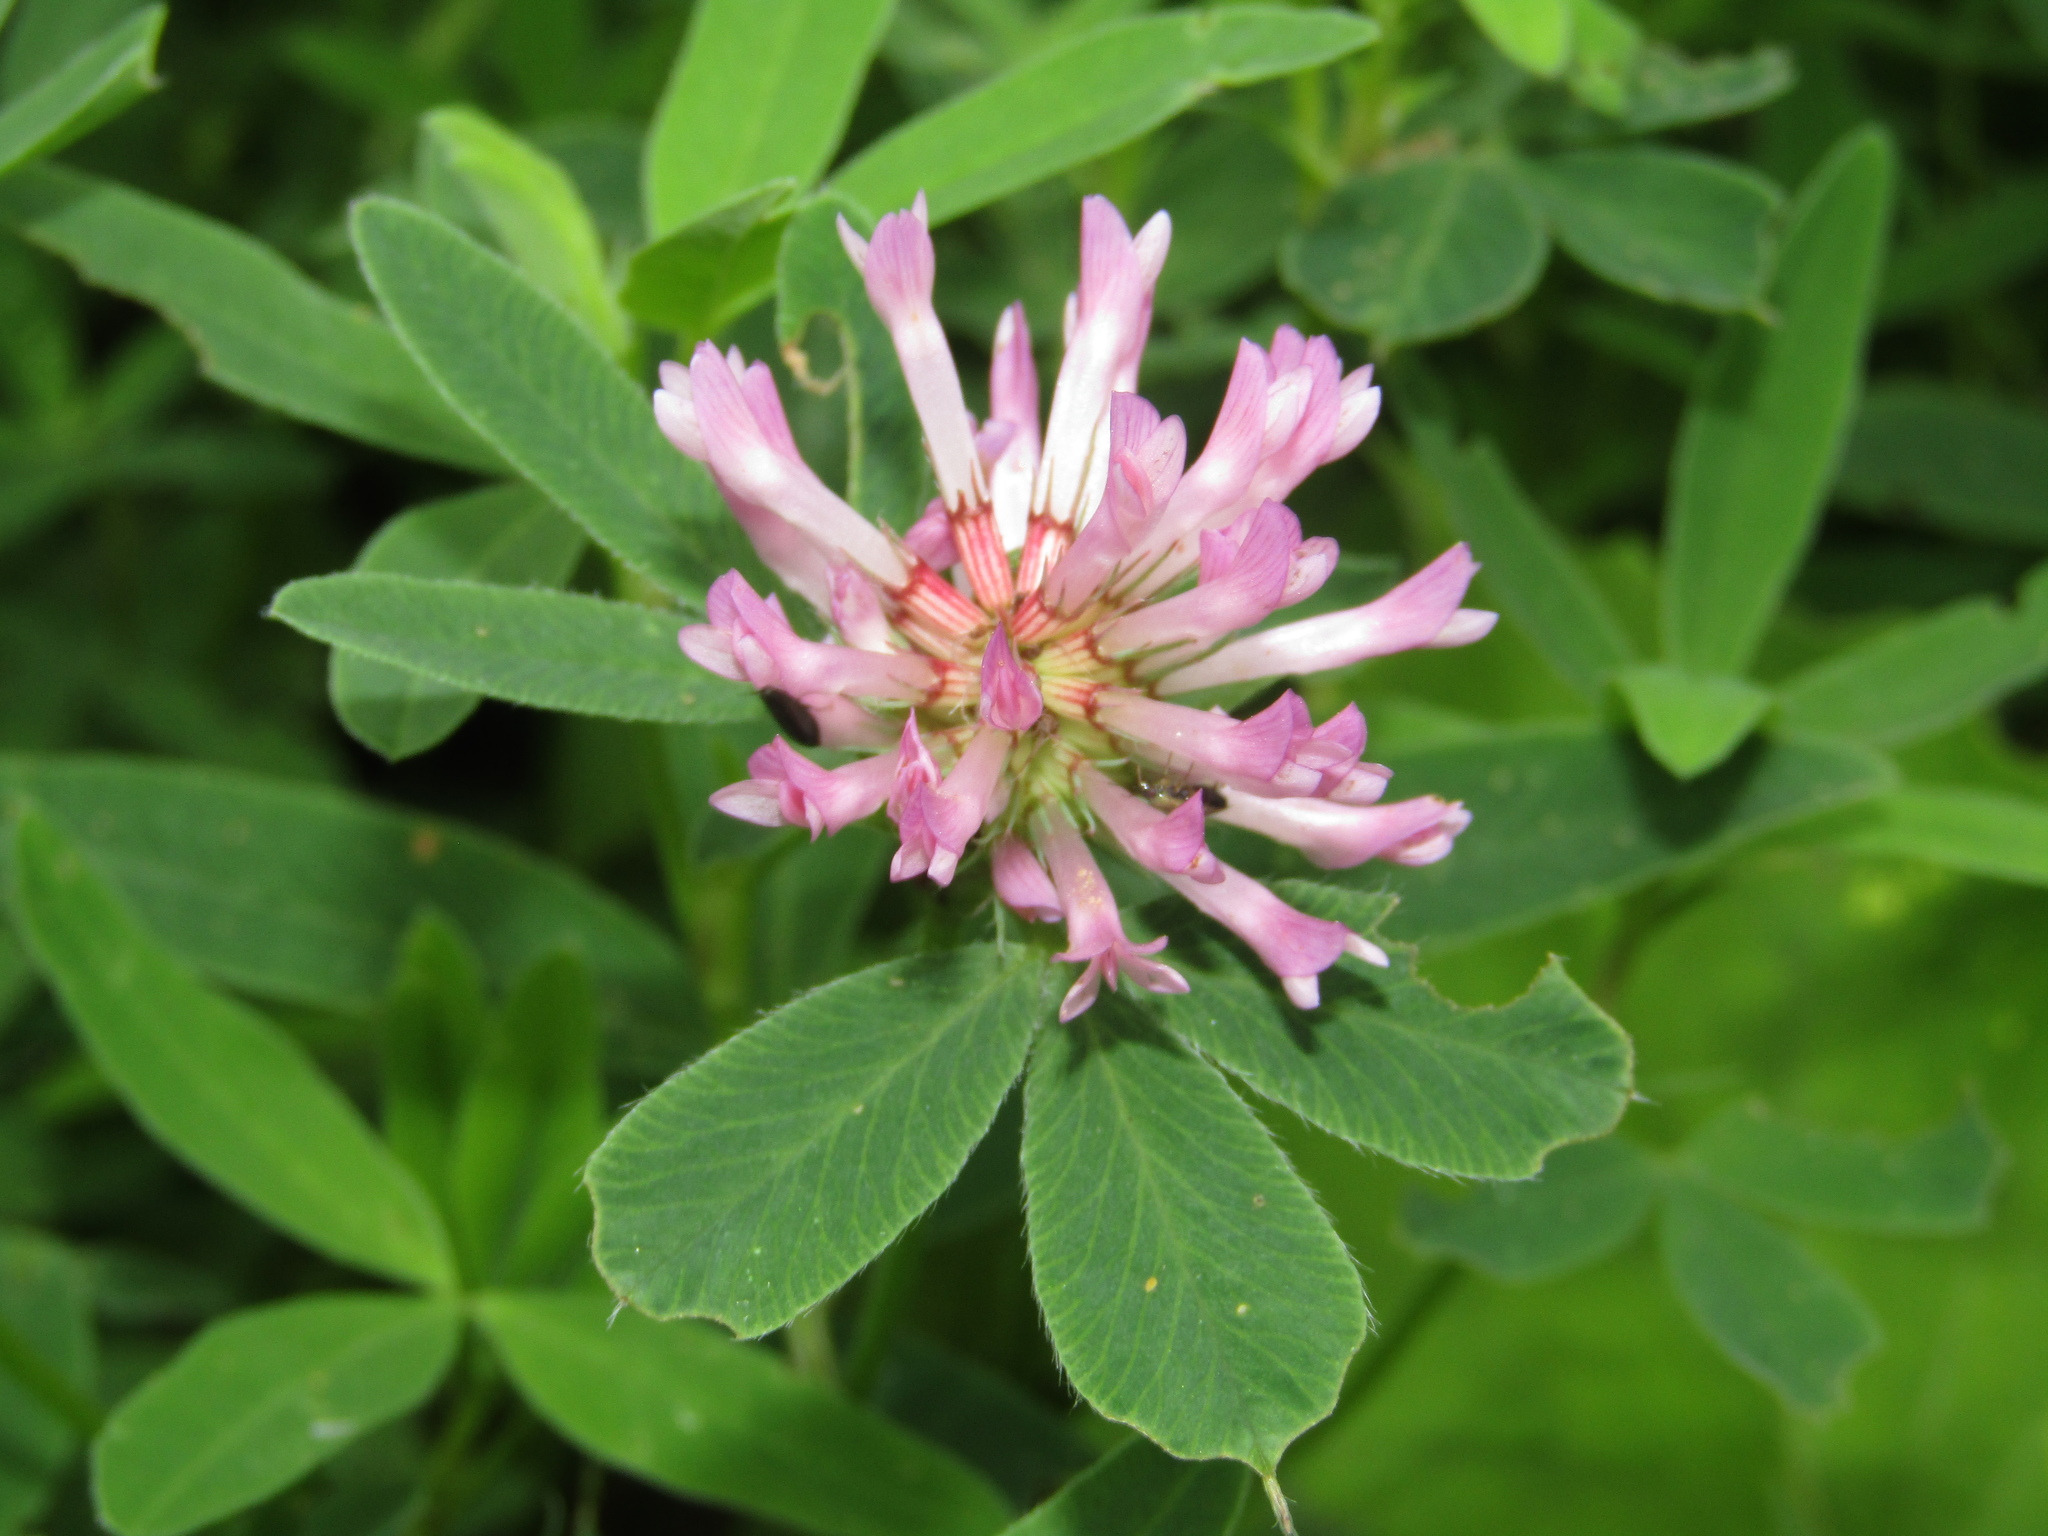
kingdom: Plantae
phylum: Tracheophyta
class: Magnoliopsida
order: Fabales
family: Fabaceae
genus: Trifolium
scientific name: Trifolium medium
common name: Zigzag clover
